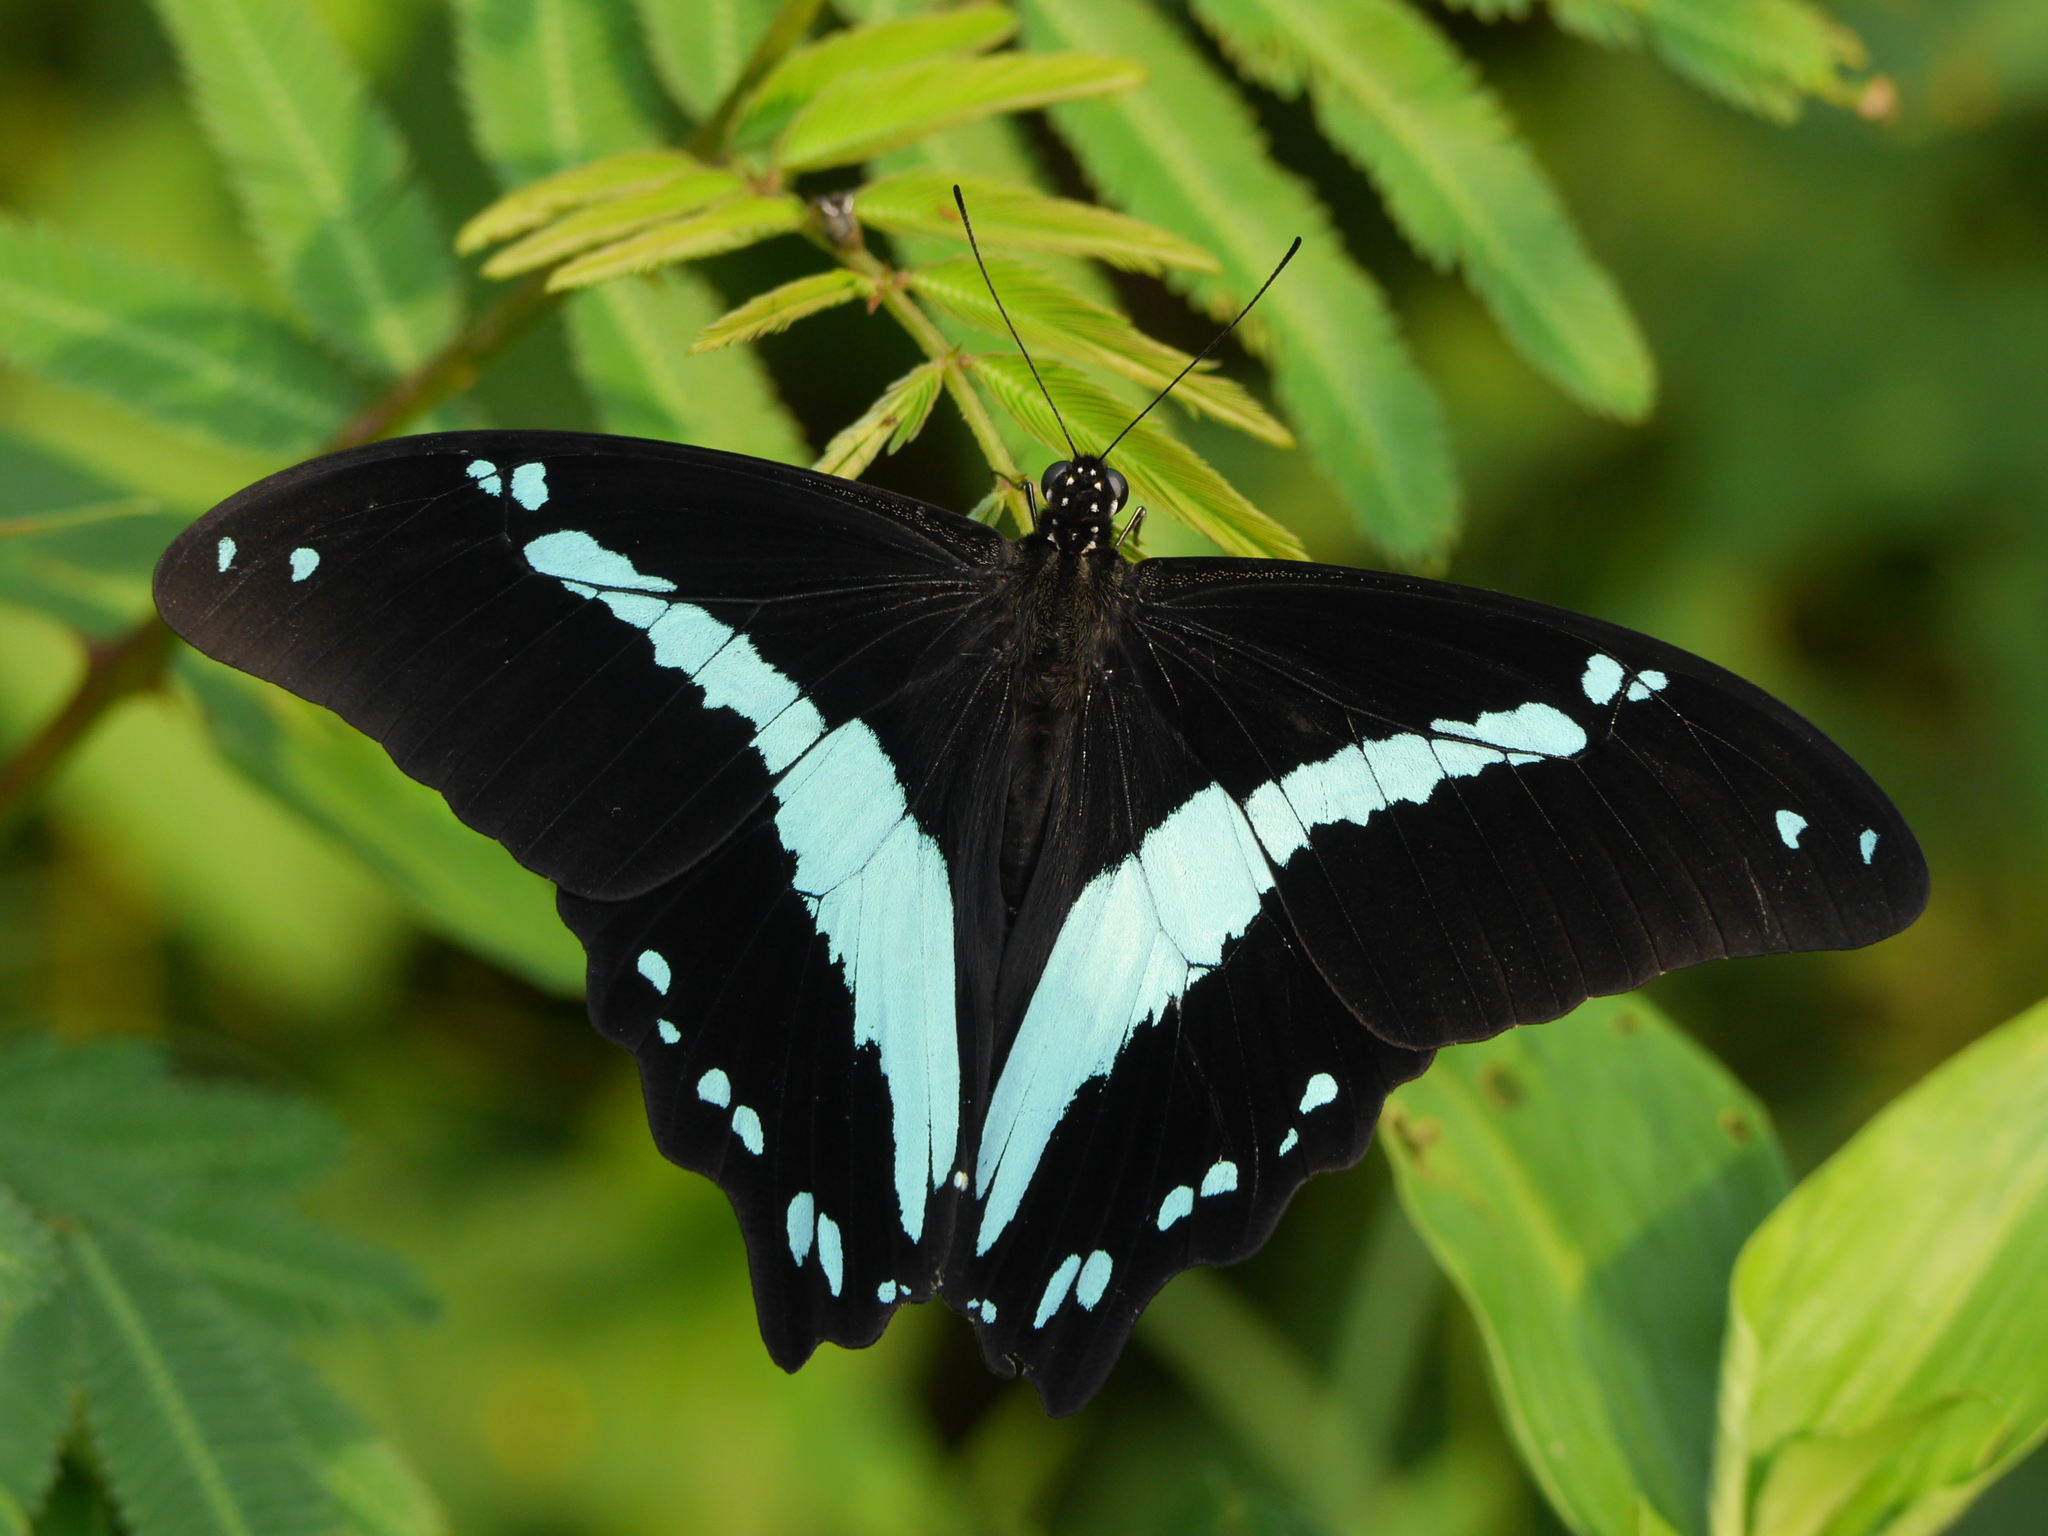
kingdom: Animalia
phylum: Arthropoda
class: Insecta
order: Lepidoptera
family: Papilionidae
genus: Papilio
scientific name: Papilio nireus
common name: Greenbanded swallowtail
